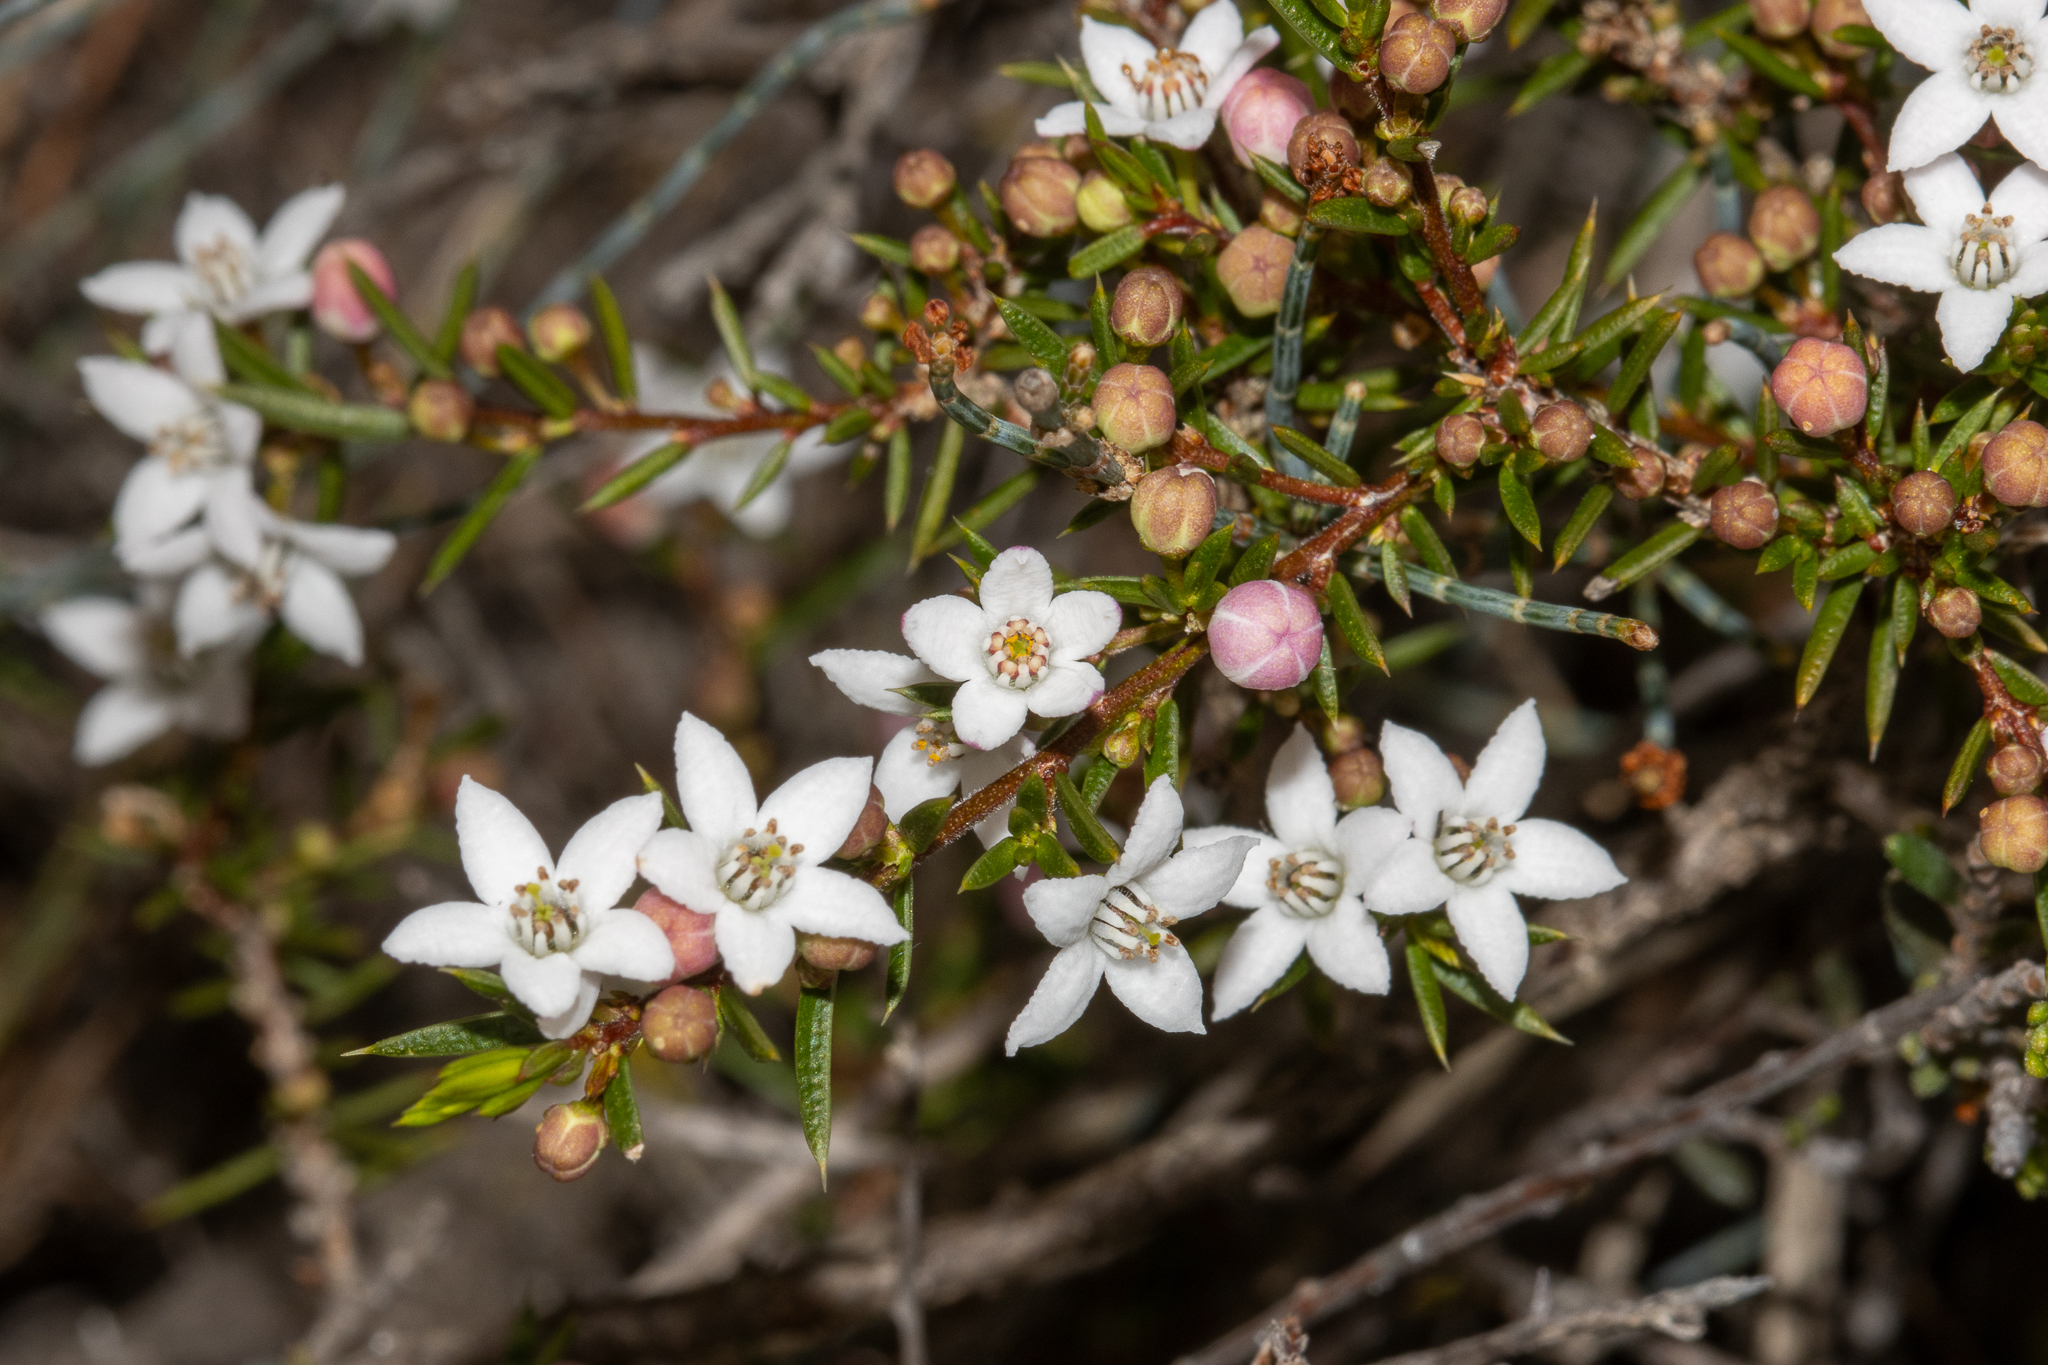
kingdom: Plantae
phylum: Tracheophyta
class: Magnoliopsida
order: Sapindales
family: Rutaceae
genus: Philotheca
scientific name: Philotheca pungens
